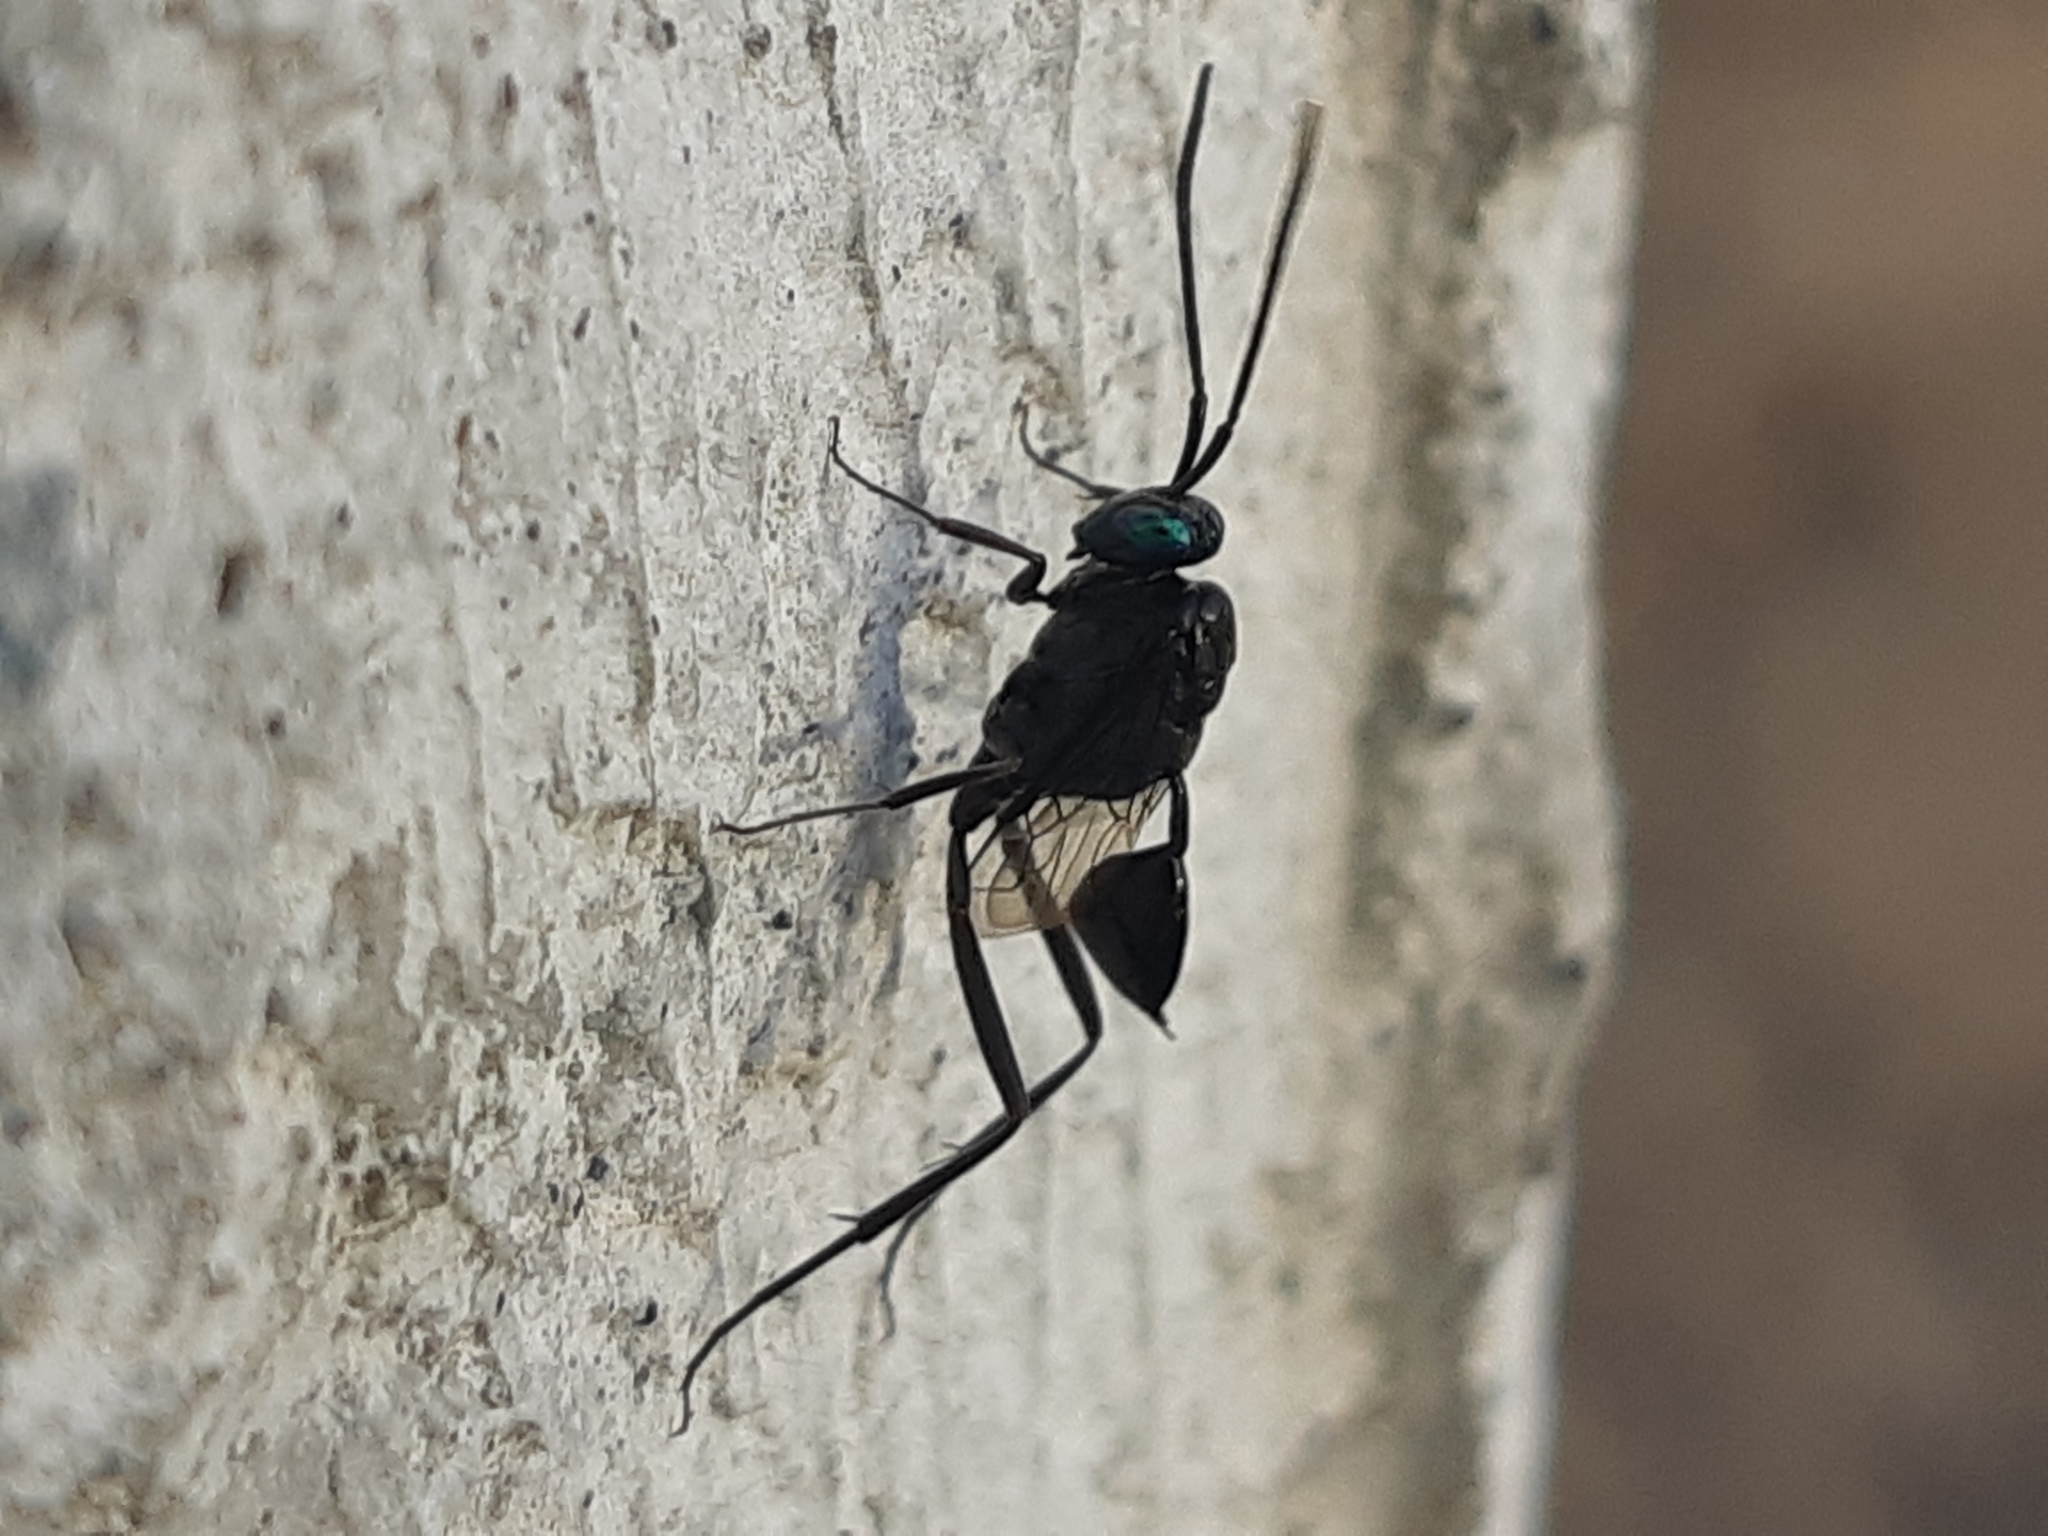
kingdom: Animalia
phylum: Arthropoda
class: Insecta
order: Hymenoptera
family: Evaniidae
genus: Evania
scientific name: Evania appendigaster
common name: Ensign wasp
